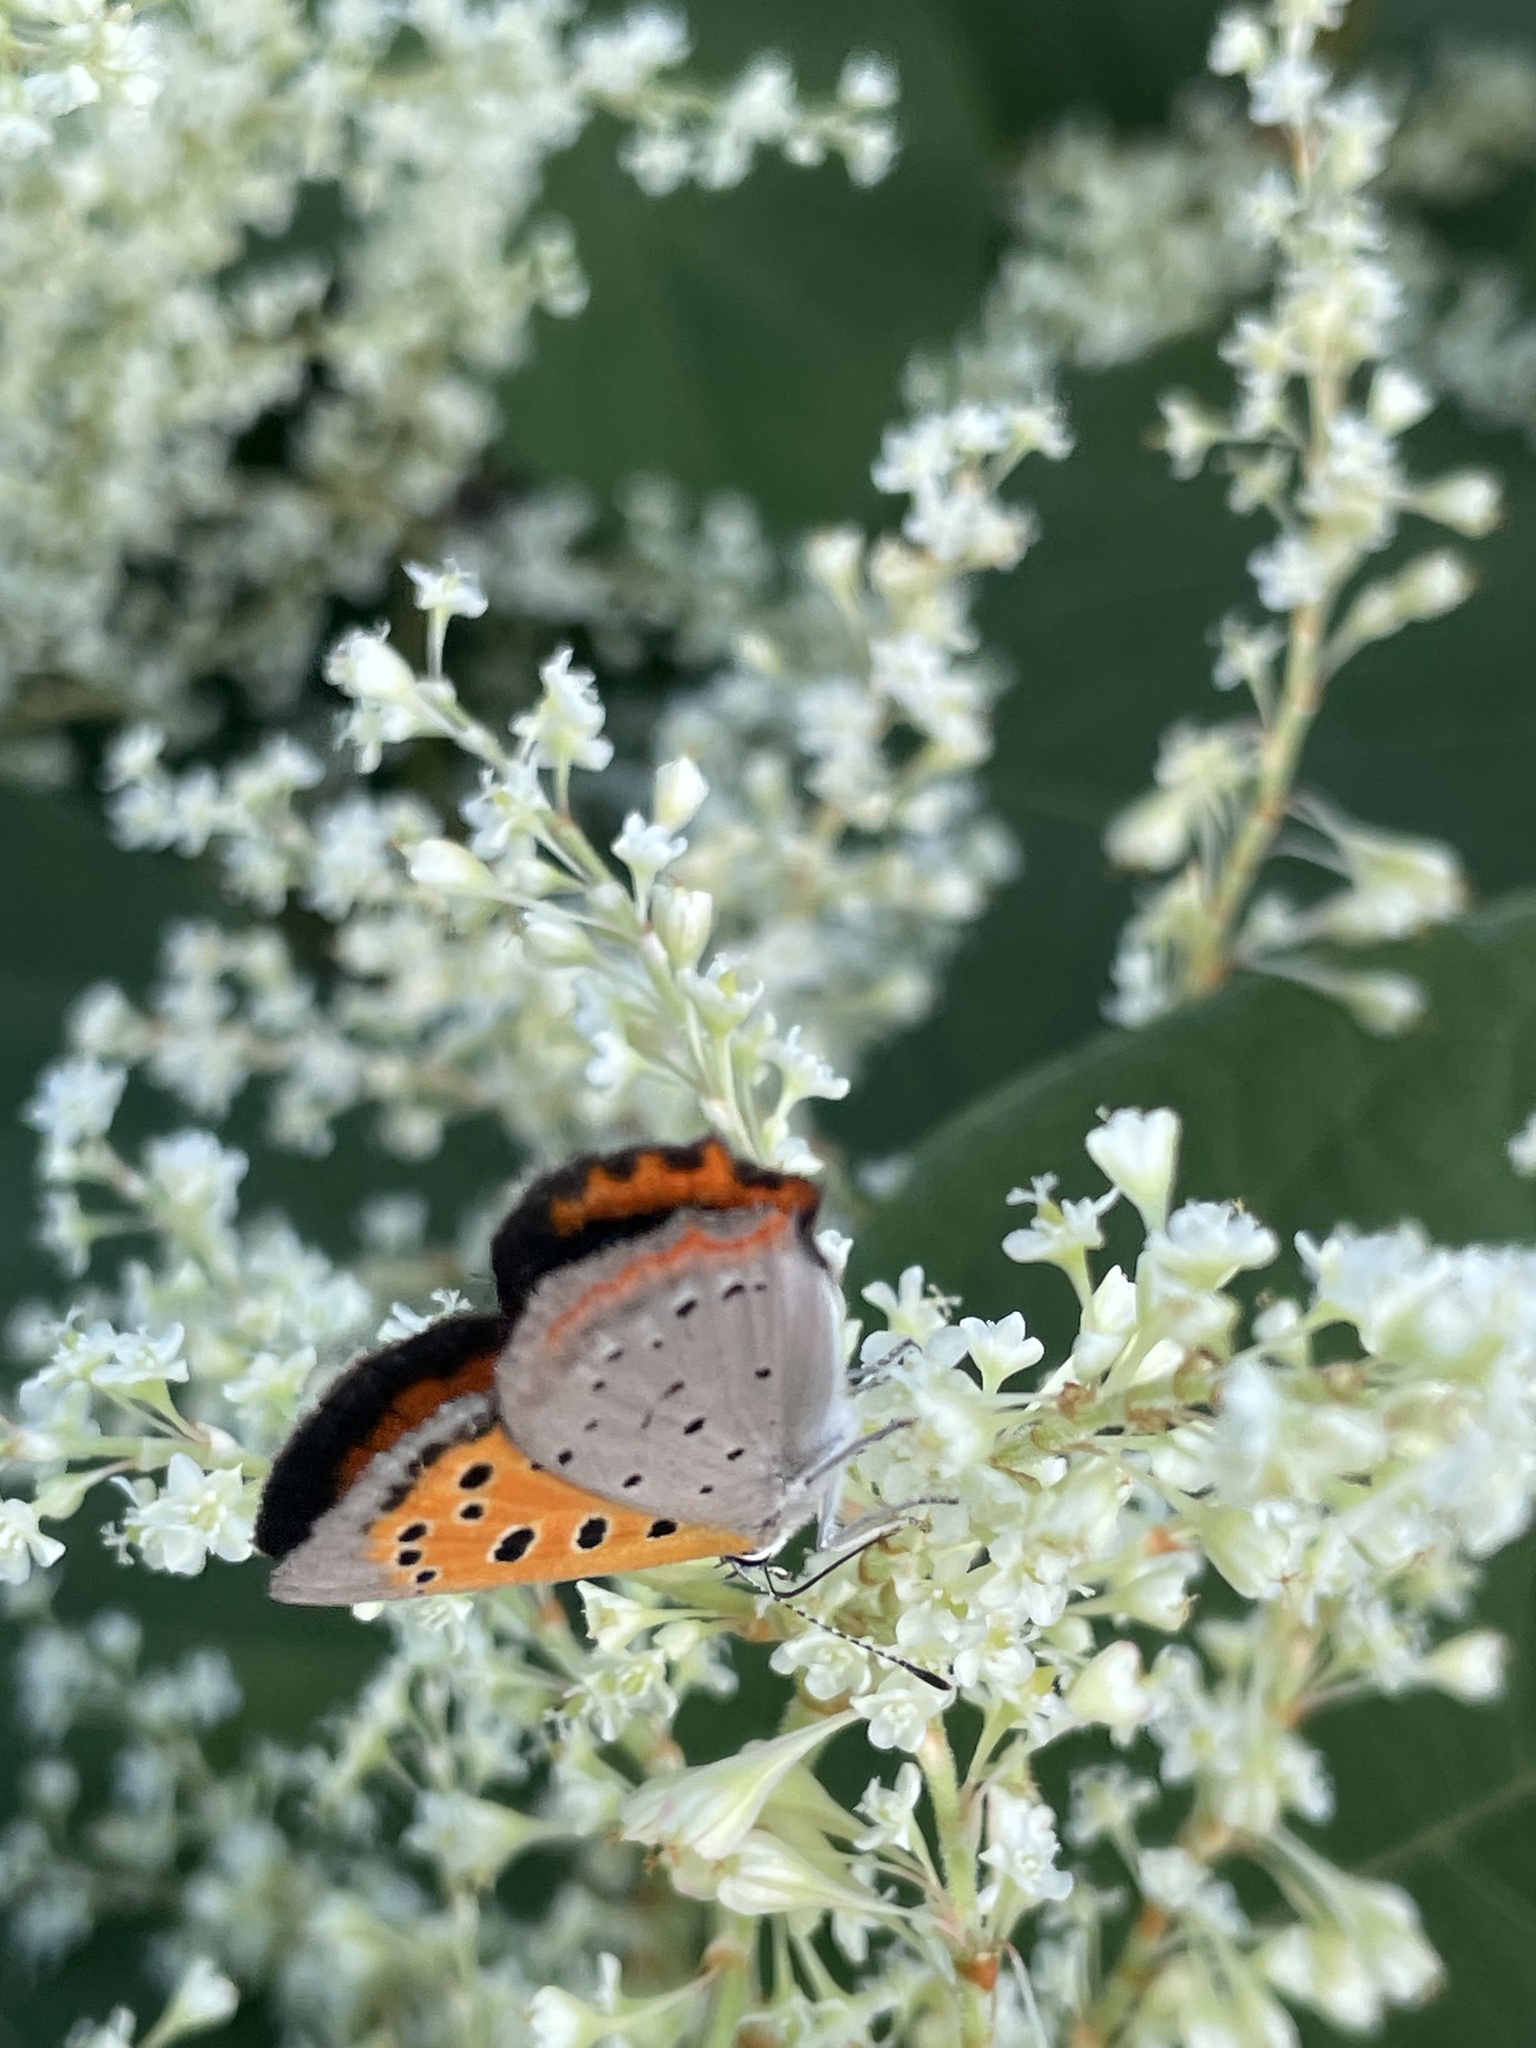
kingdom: Animalia
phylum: Arthropoda
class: Insecta
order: Lepidoptera
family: Lycaenidae
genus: Lycaena
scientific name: Lycaena hypophlaeas
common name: American copper
